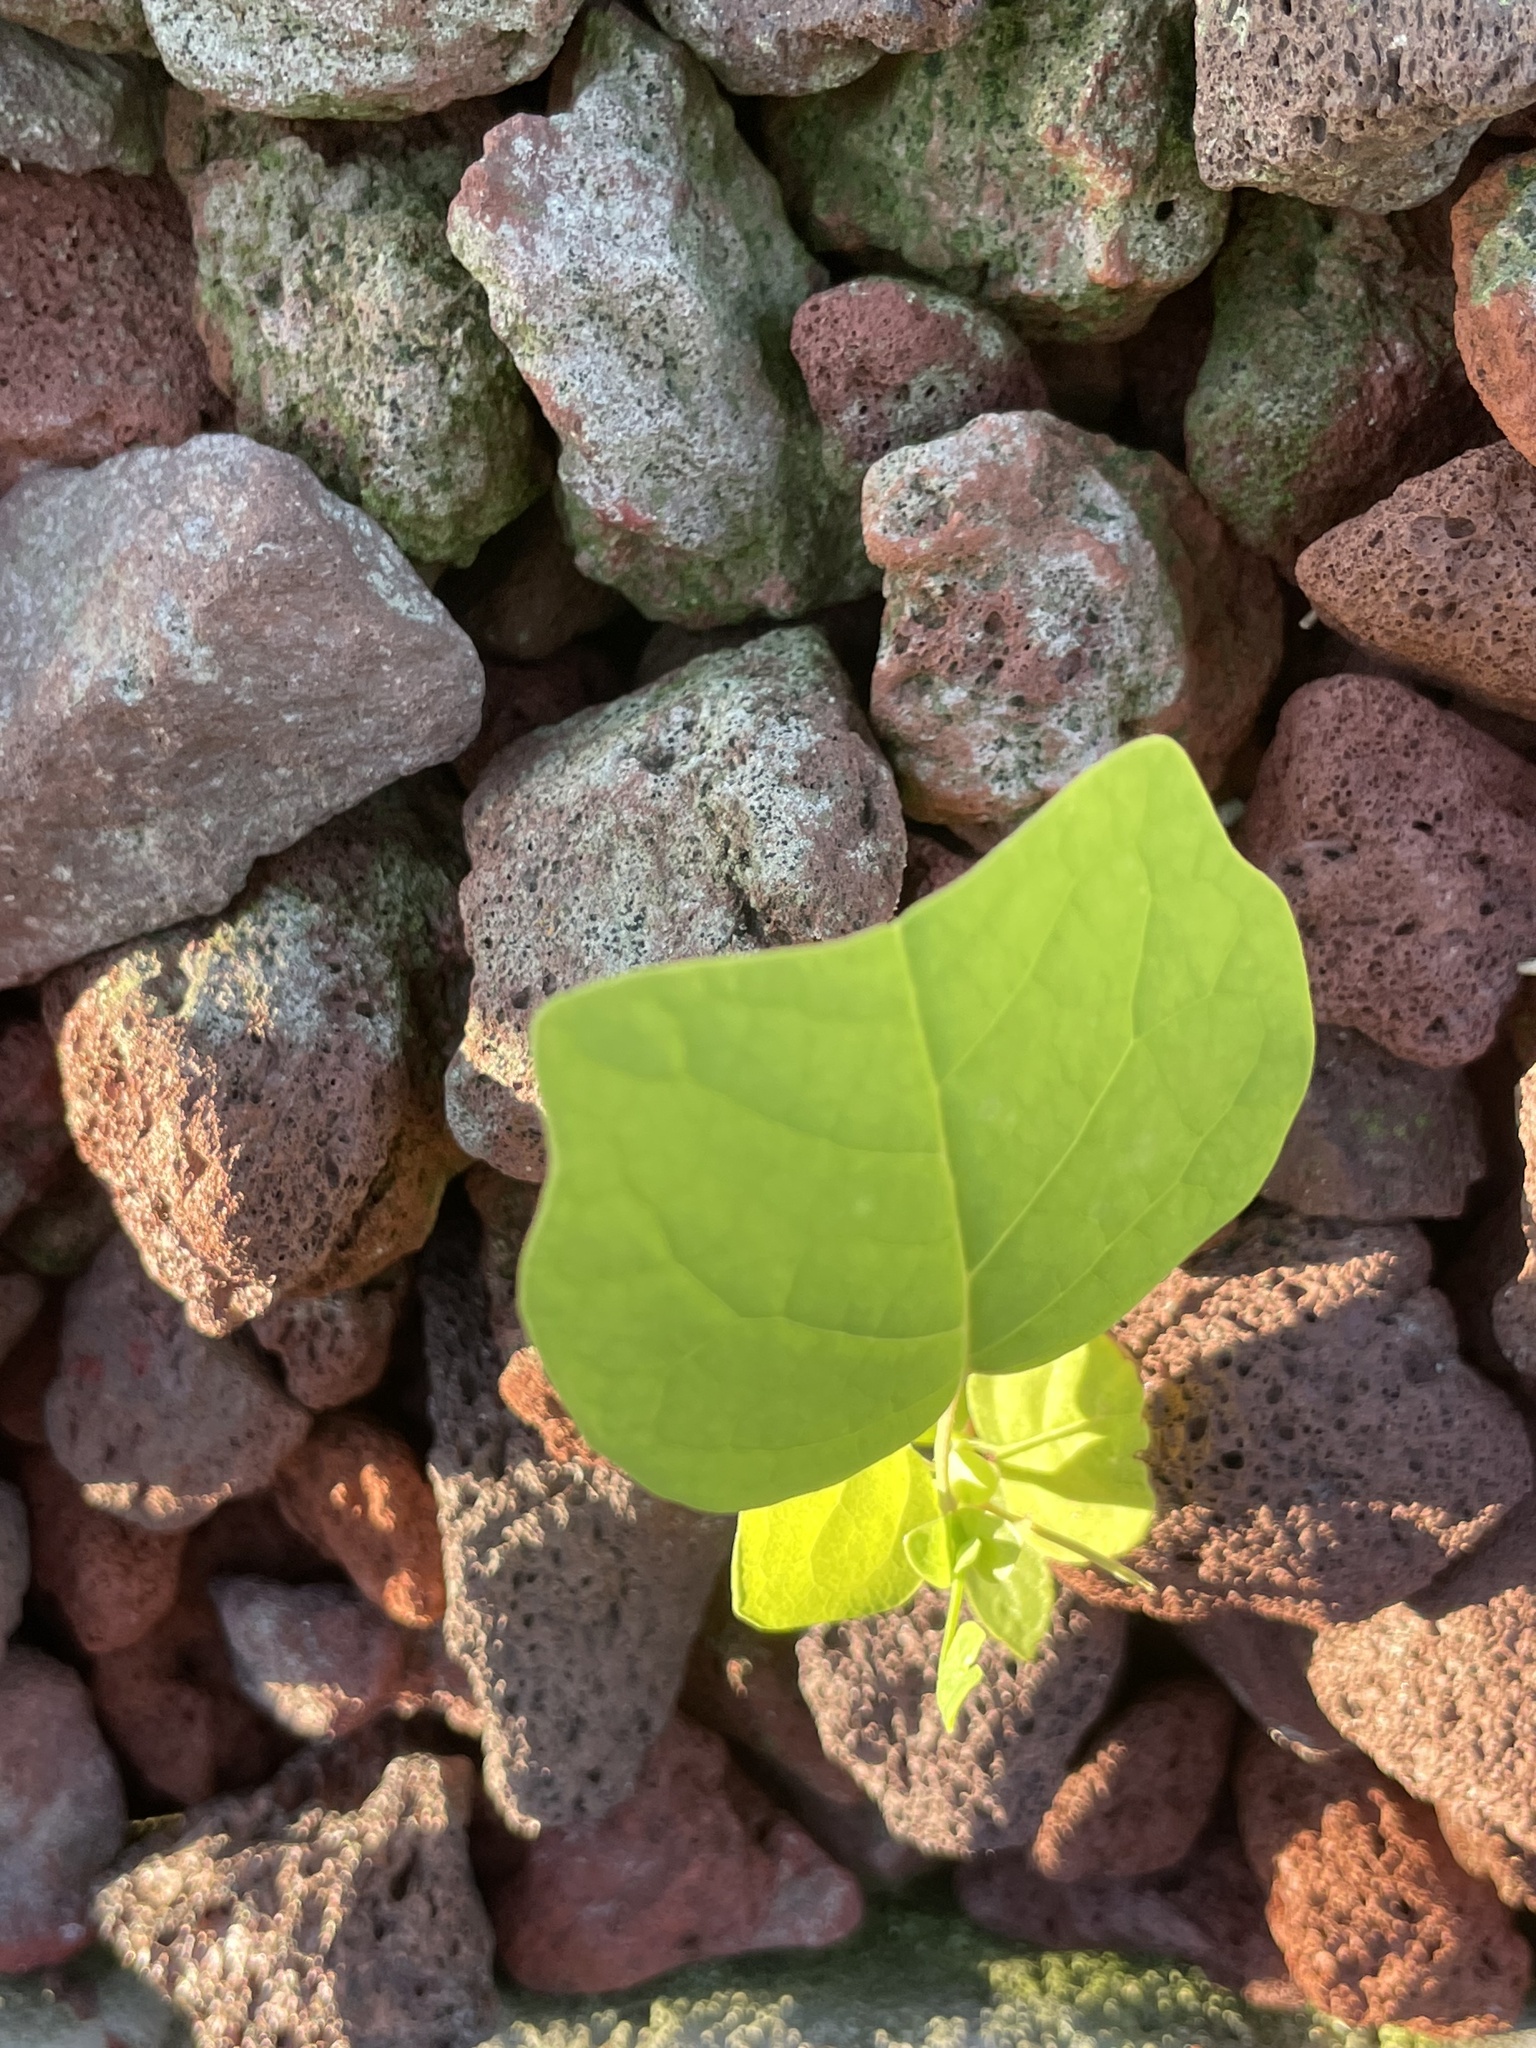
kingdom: Plantae
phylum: Tracheophyta
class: Magnoliopsida
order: Magnoliales
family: Magnoliaceae
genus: Liriodendron
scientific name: Liriodendron tulipifera
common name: Tulip tree
